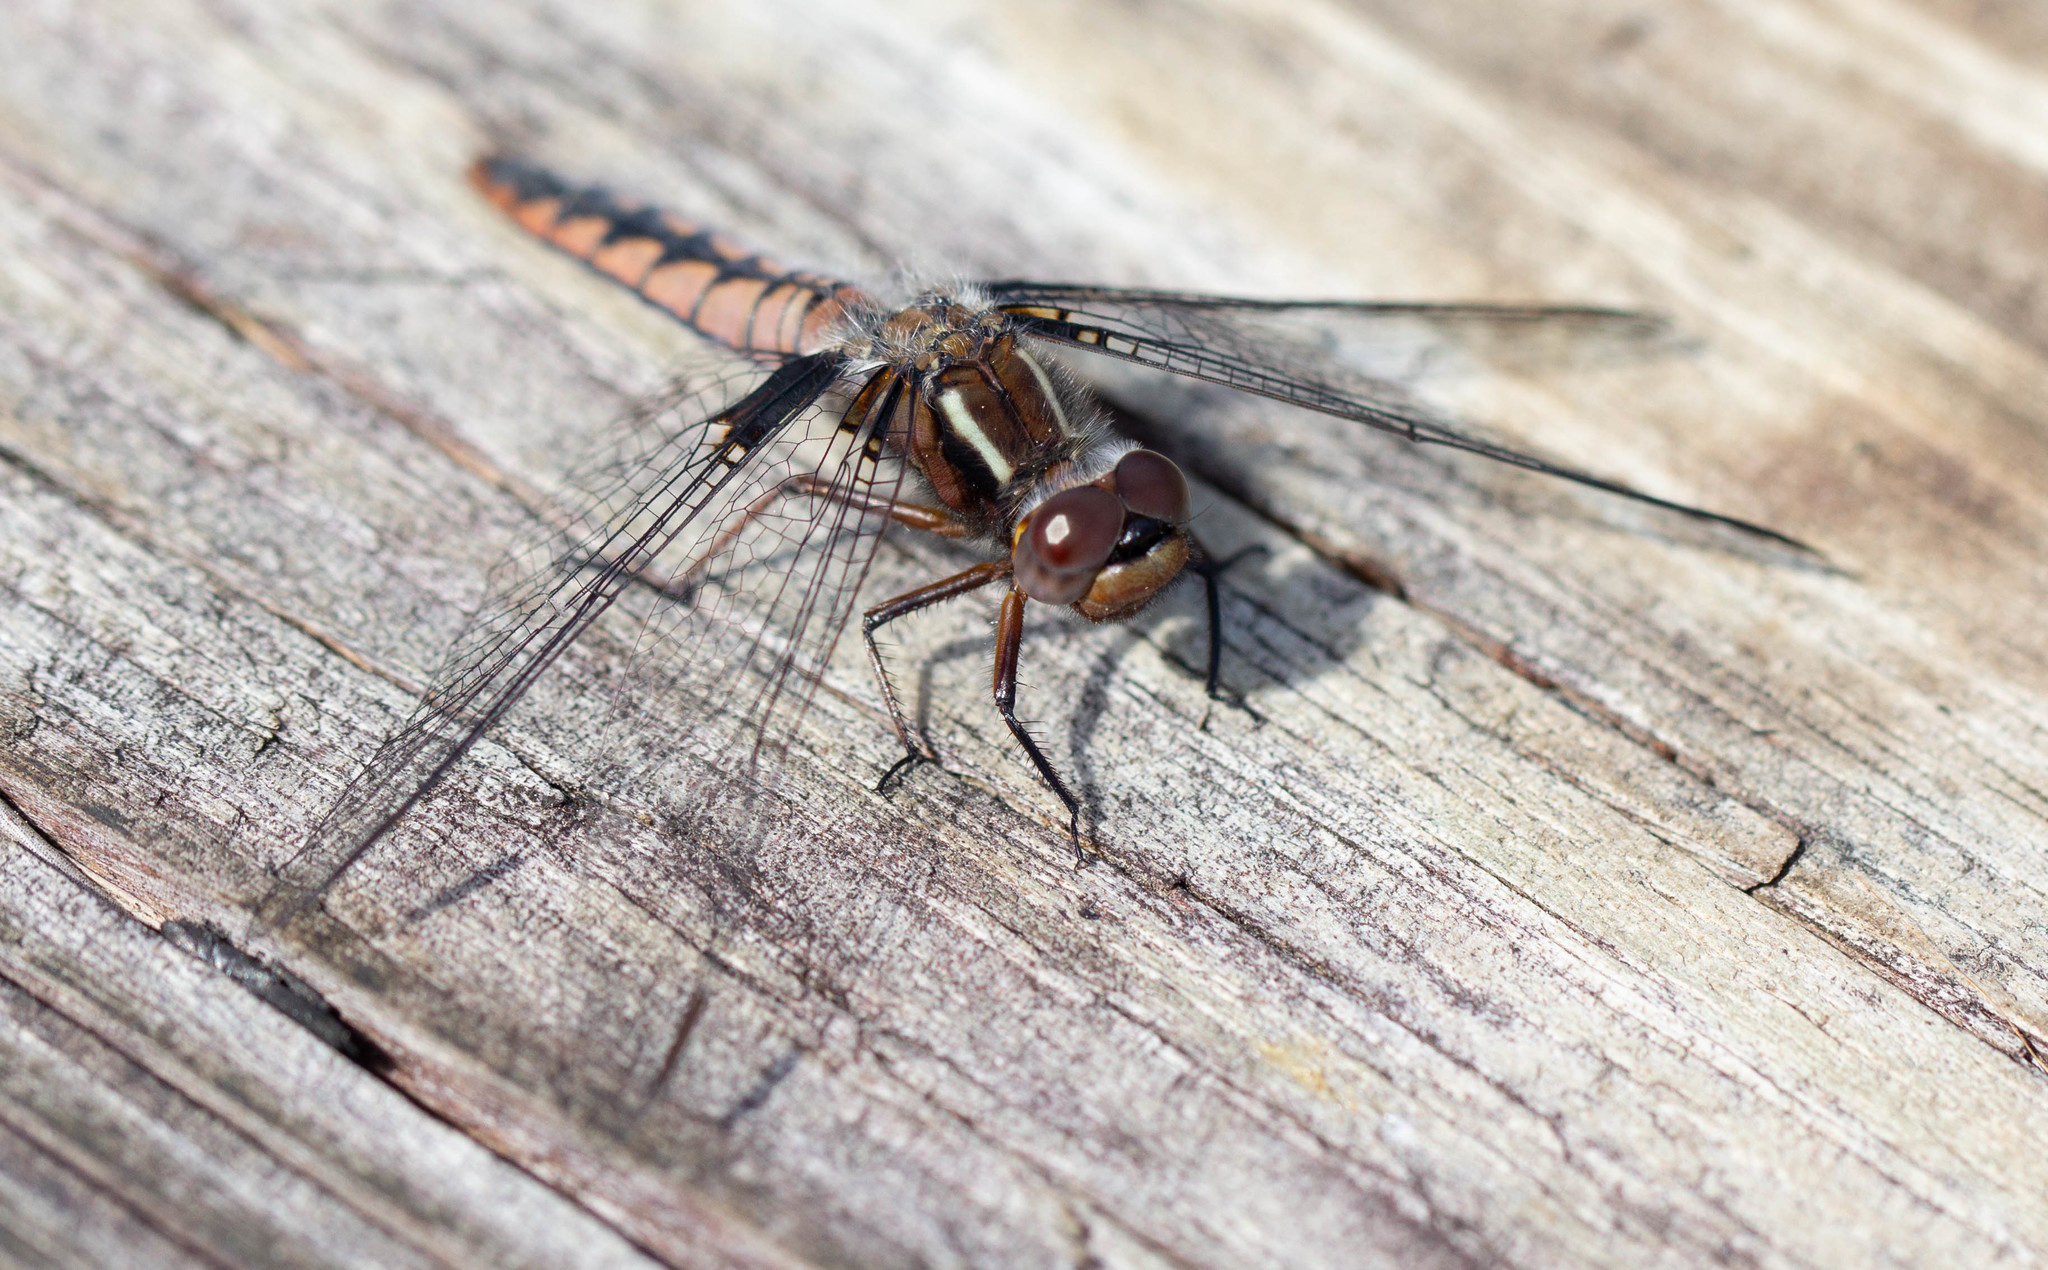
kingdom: Animalia
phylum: Arthropoda
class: Insecta
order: Odonata
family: Libellulidae
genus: Ladona
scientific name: Ladona deplanata
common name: Blue corporal
